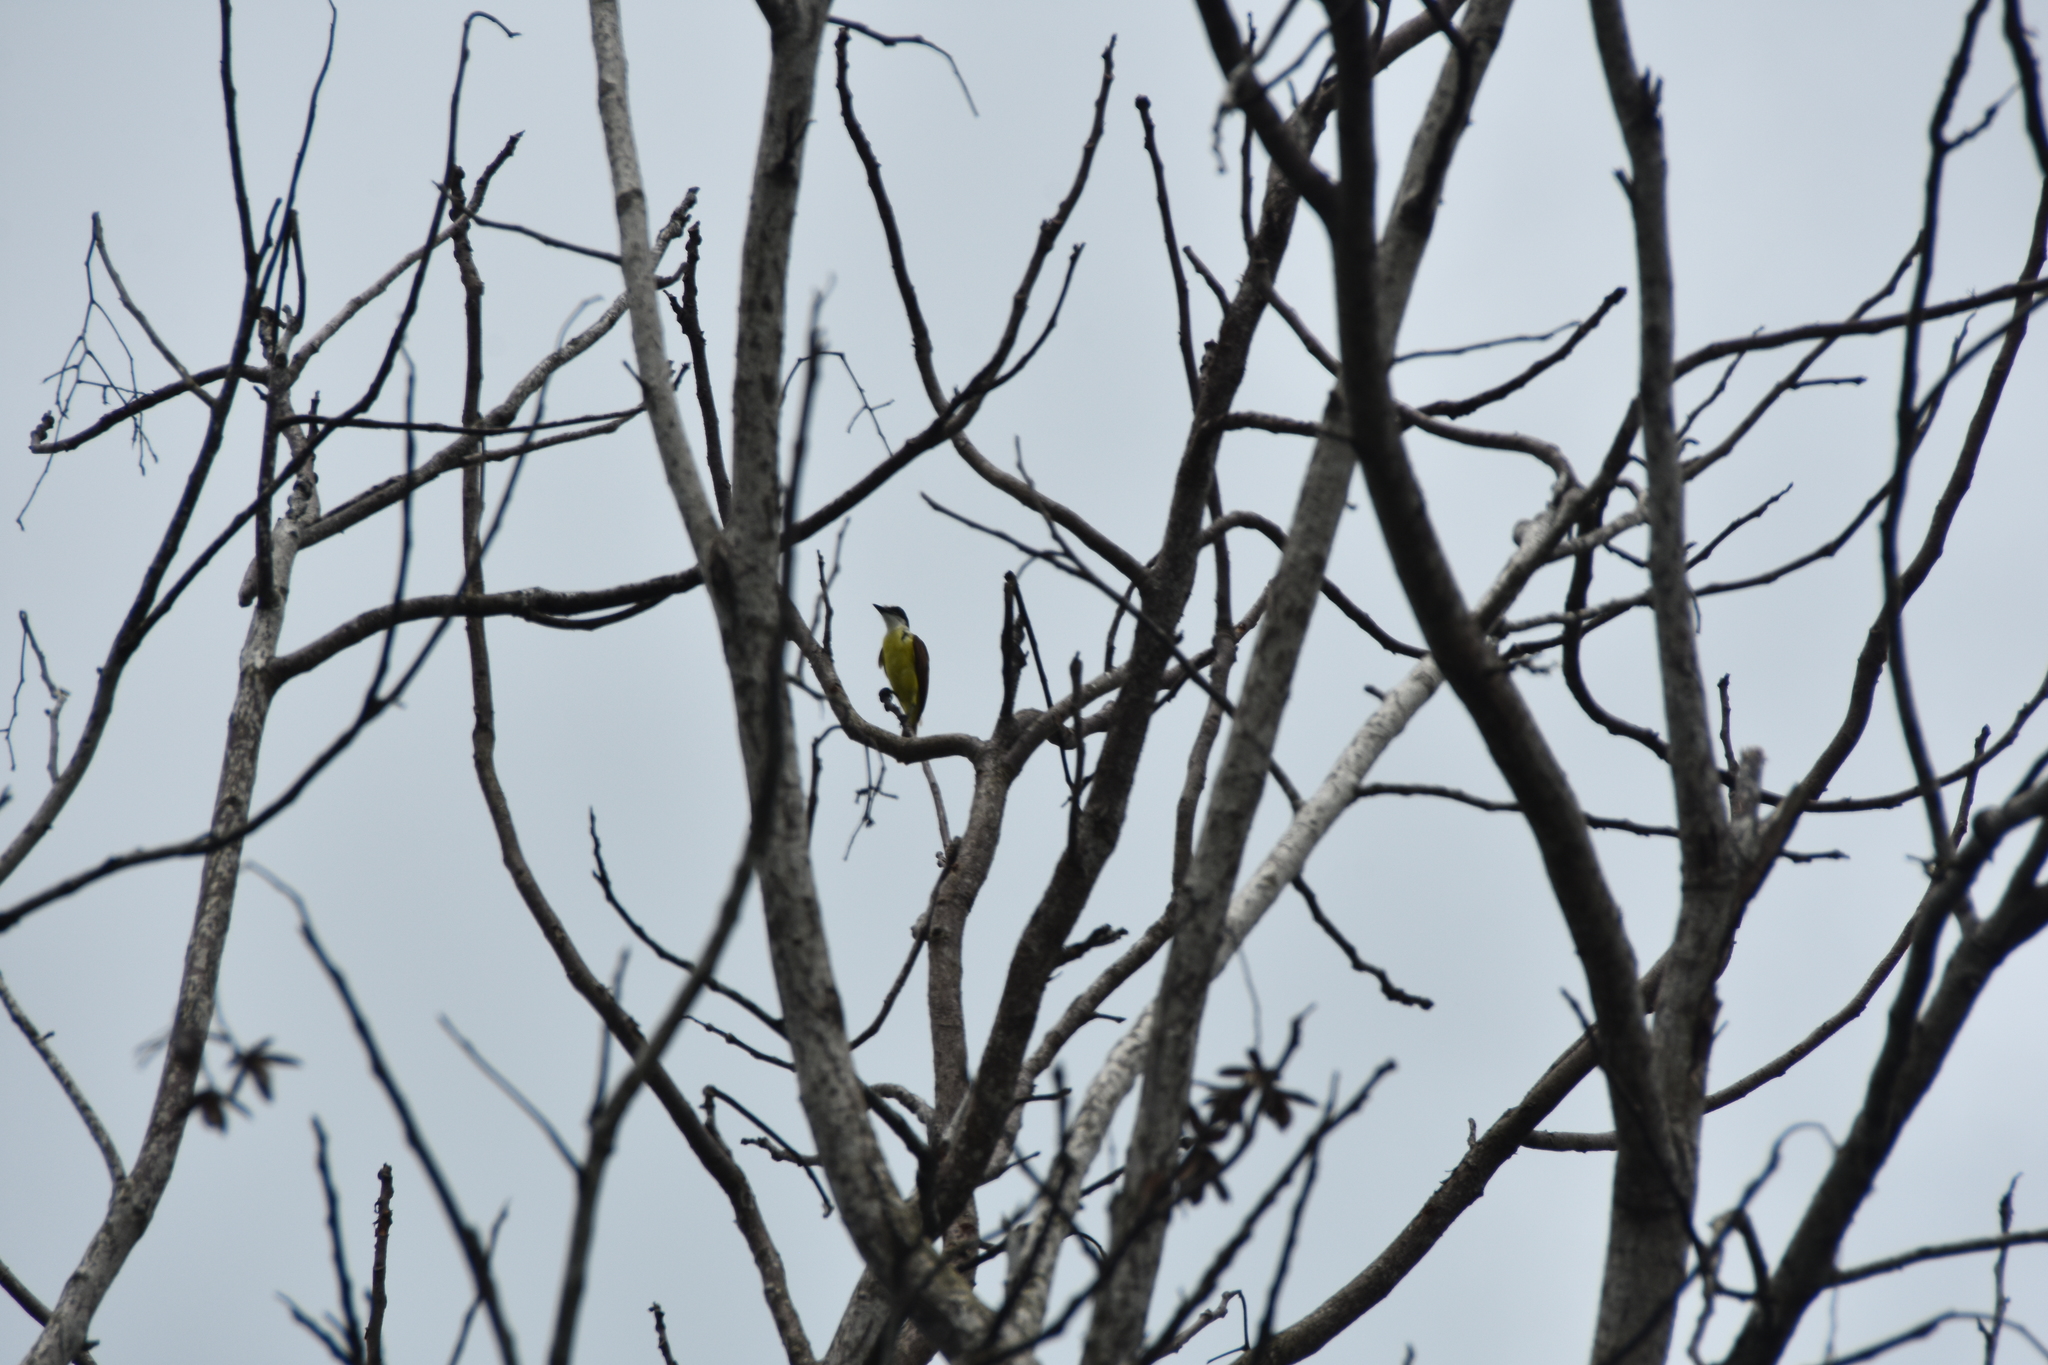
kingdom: Animalia
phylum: Chordata
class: Aves
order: Passeriformes
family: Tyrannidae
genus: Pitangus
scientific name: Pitangus sulphuratus
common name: Great kiskadee
